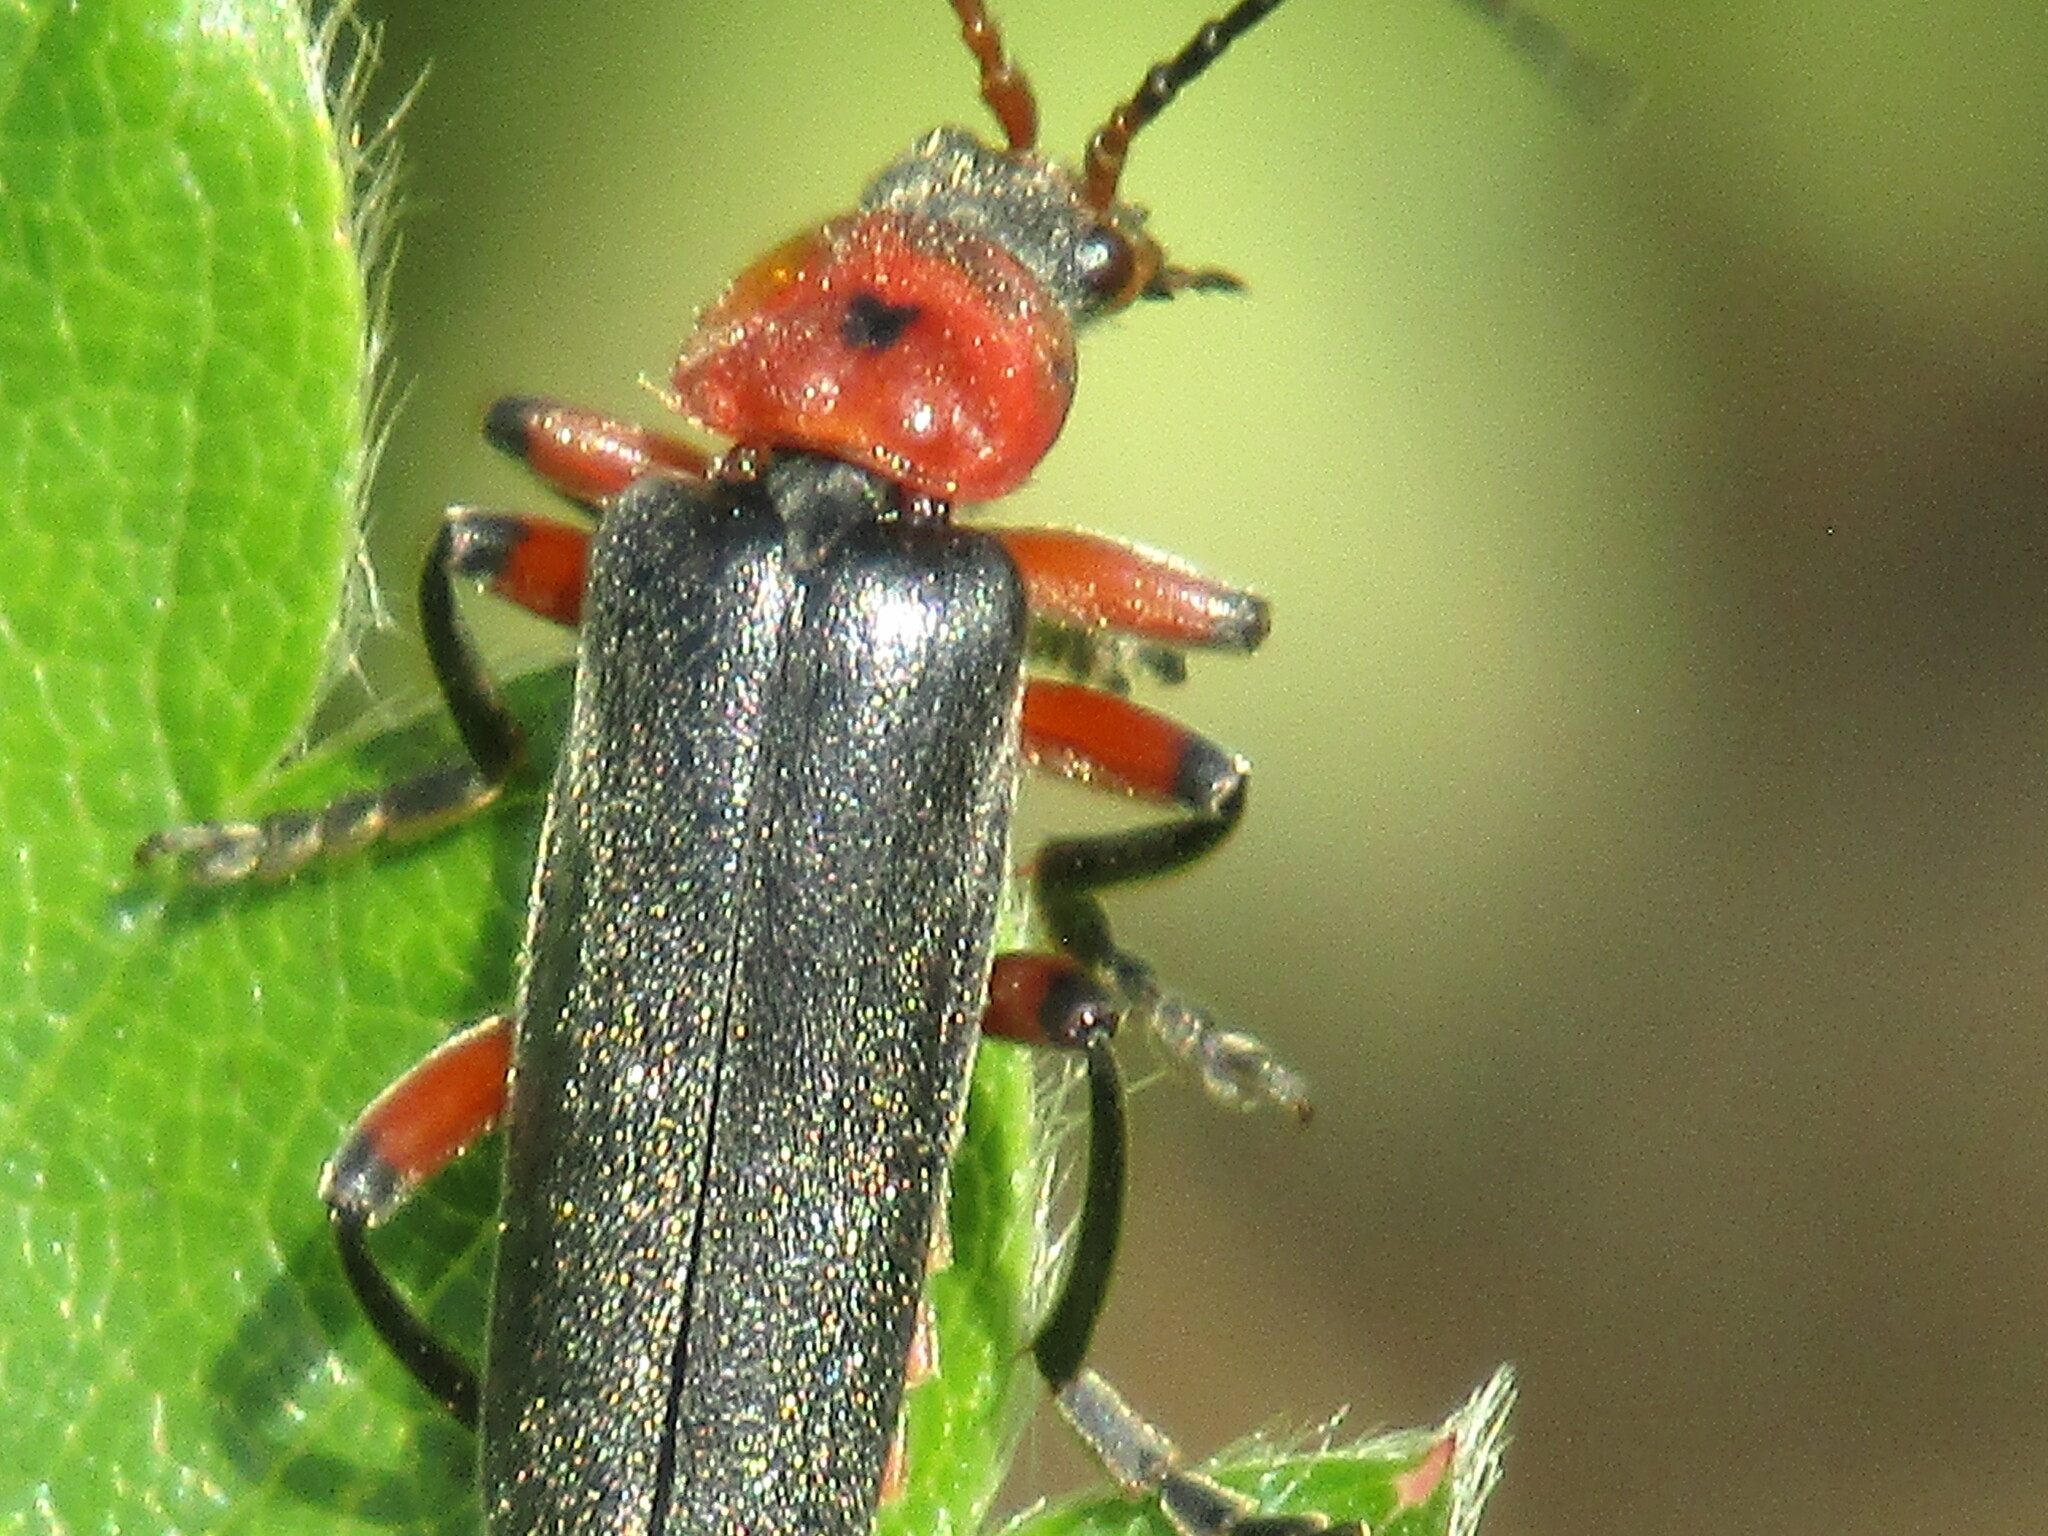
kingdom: Animalia
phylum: Arthropoda
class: Insecta
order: Coleoptera
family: Cantharidae
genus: Cantharis
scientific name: Cantharis rustica
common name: Soldier beetle
